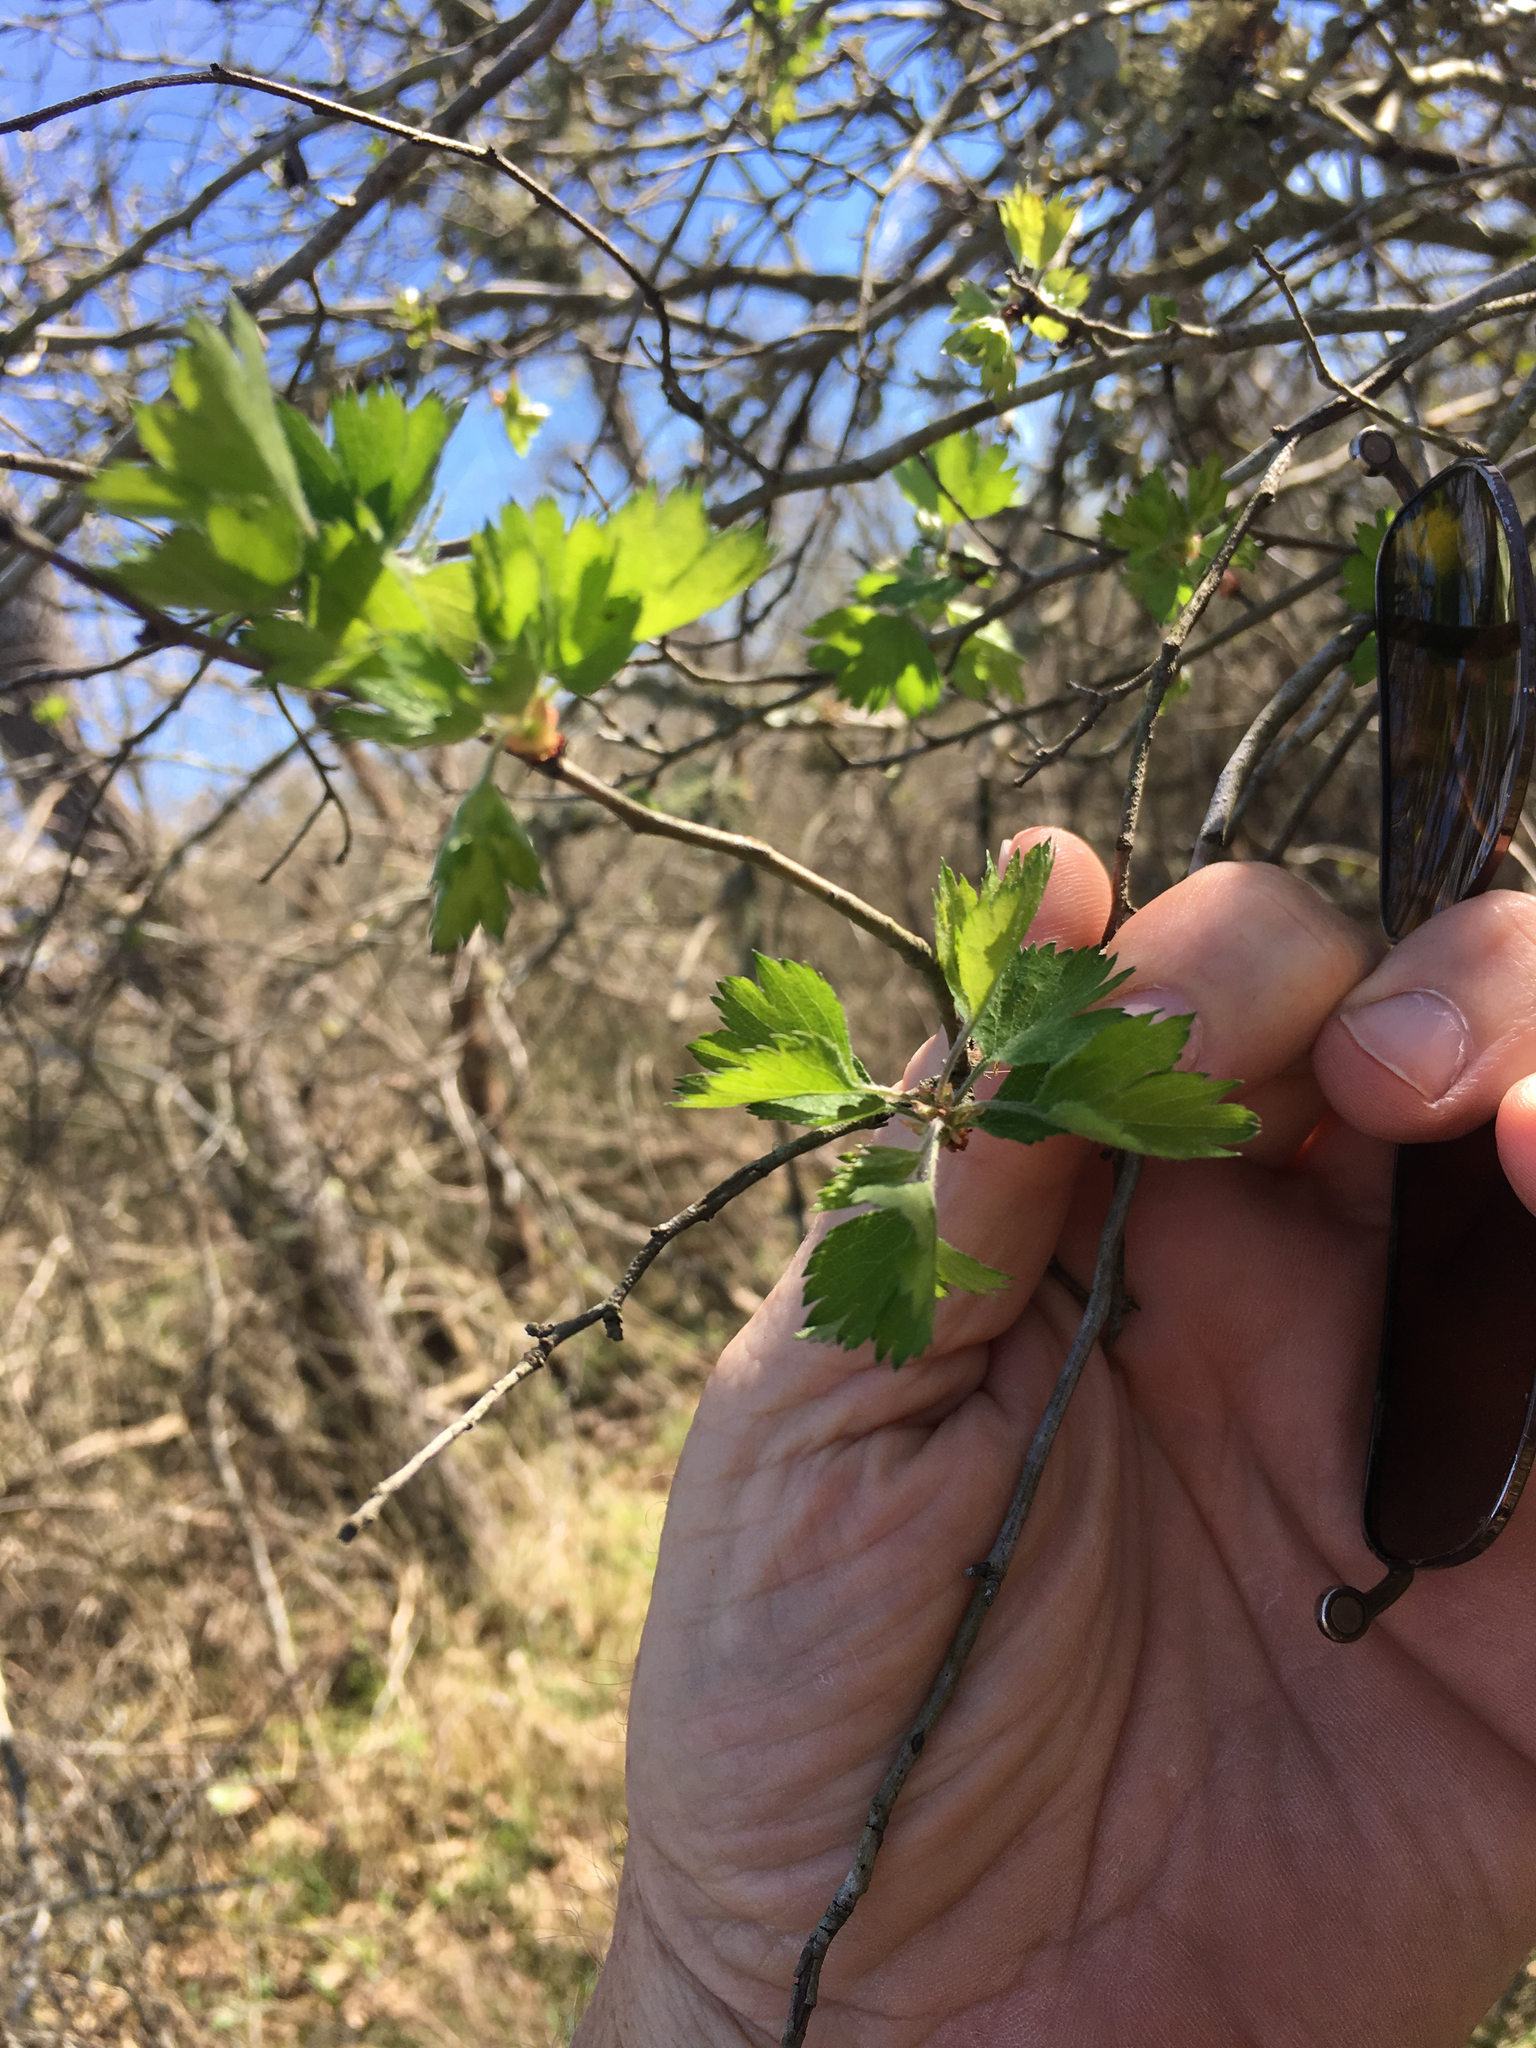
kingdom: Plantae
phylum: Tracheophyta
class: Magnoliopsida
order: Rosales
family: Rosaceae
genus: Crataegus
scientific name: Crataegus marshallii
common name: Parsley-hawthorn
